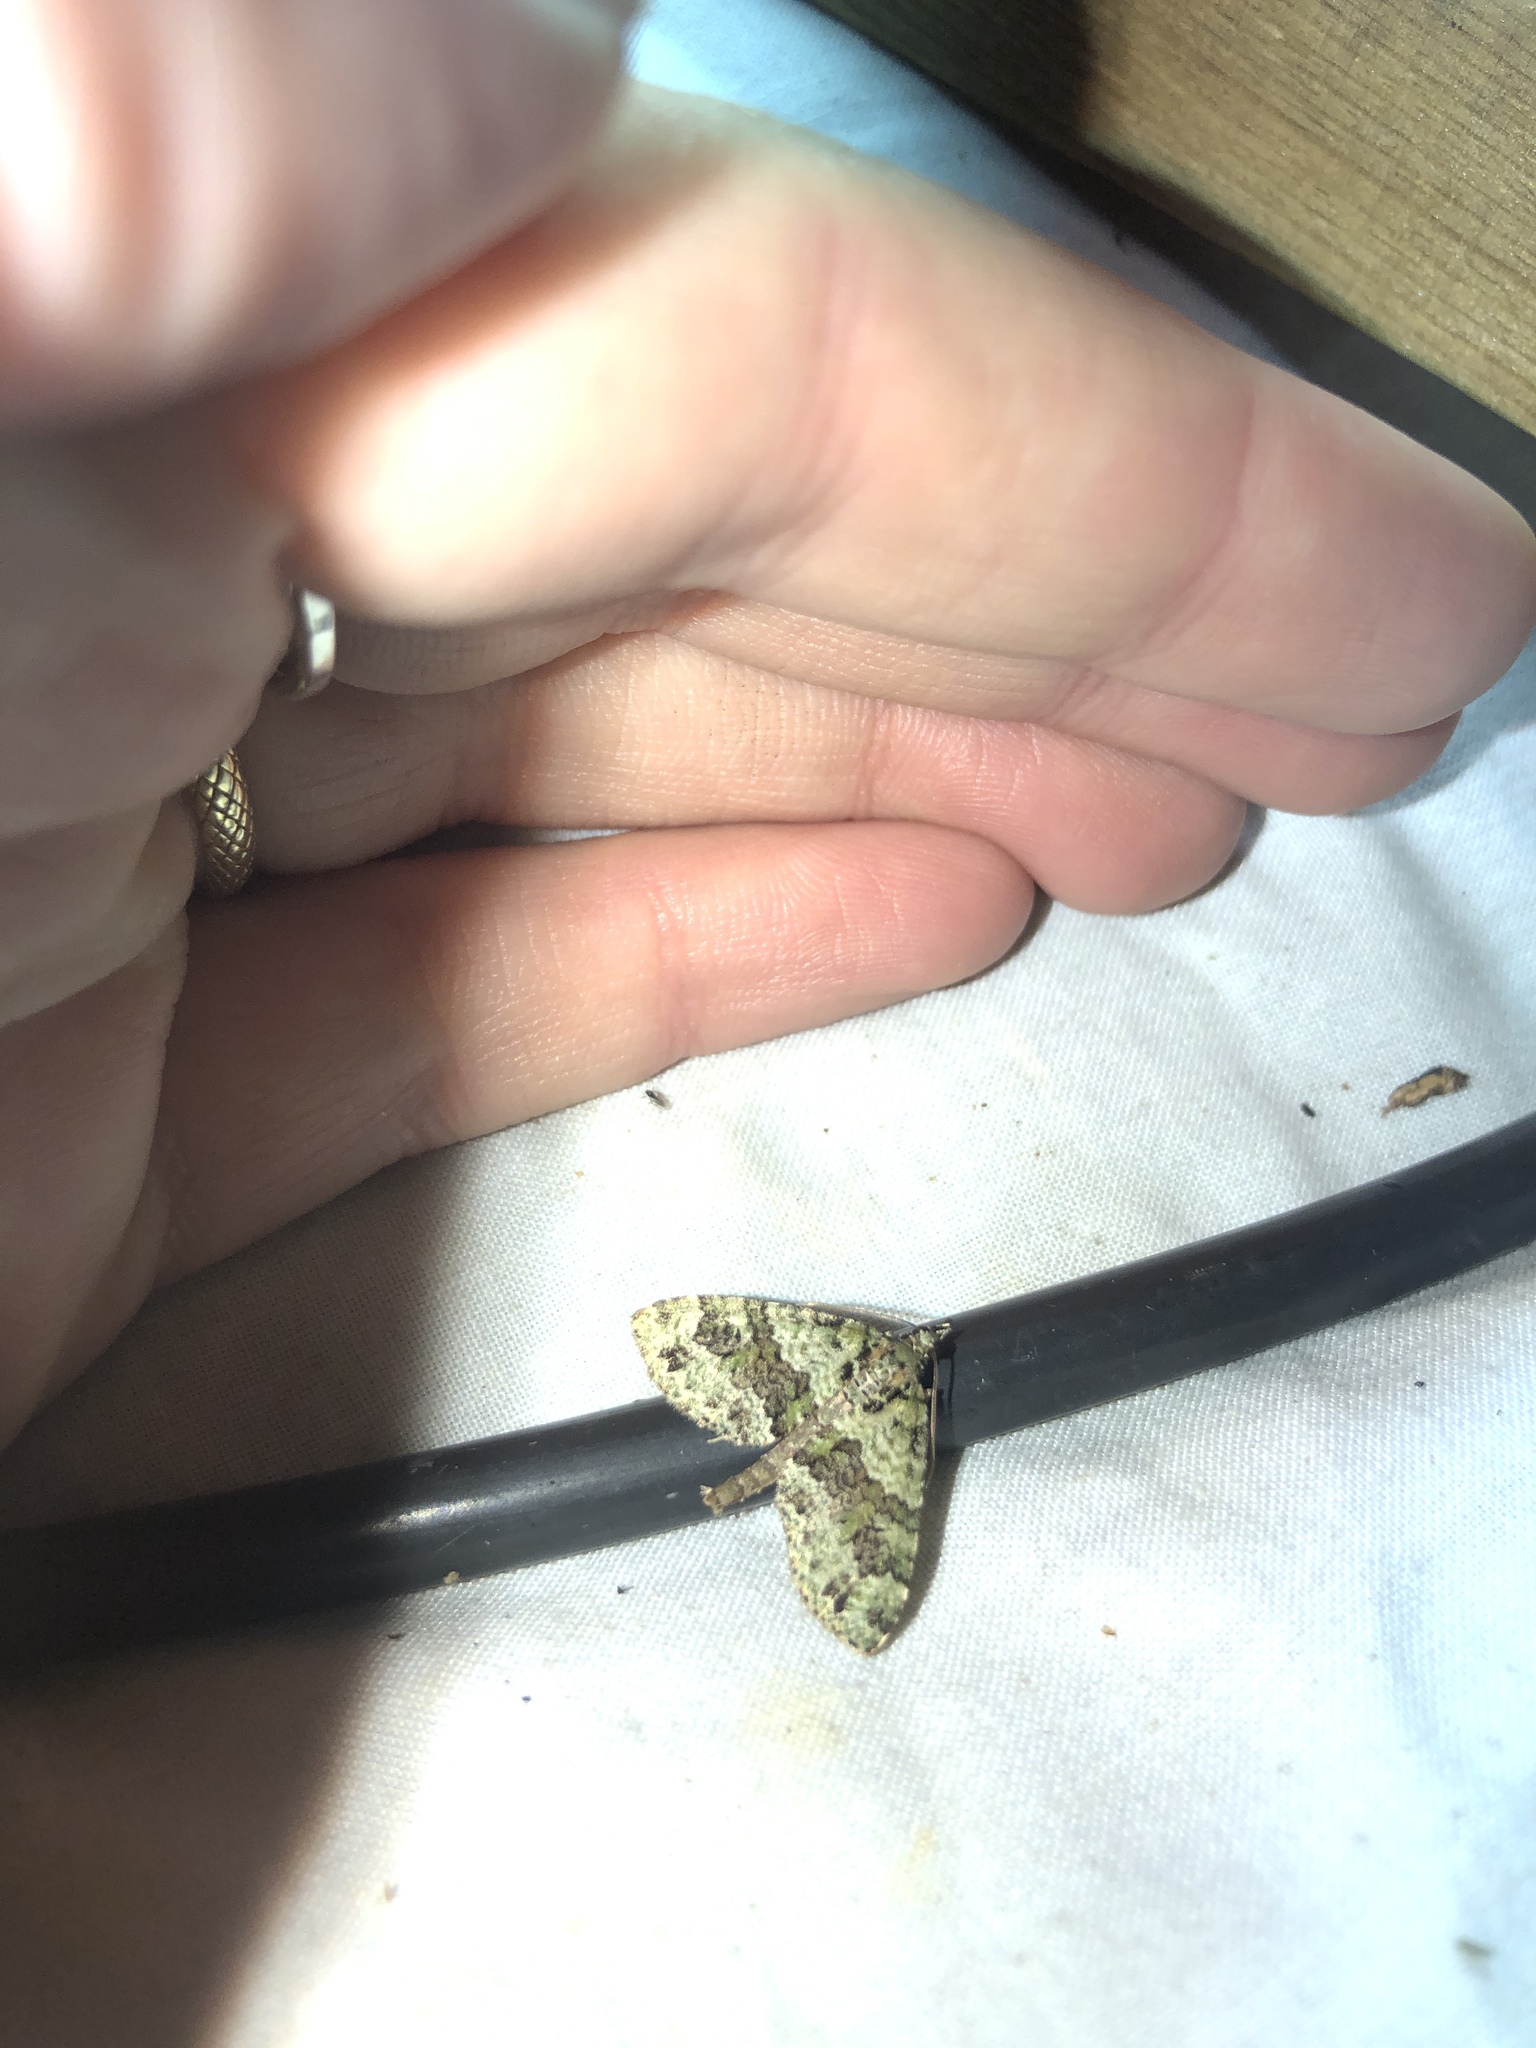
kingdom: Animalia
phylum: Arthropoda
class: Insecta
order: Lepidoptera
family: Geometridae
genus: Tatosoma
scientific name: Tatosoma alta
